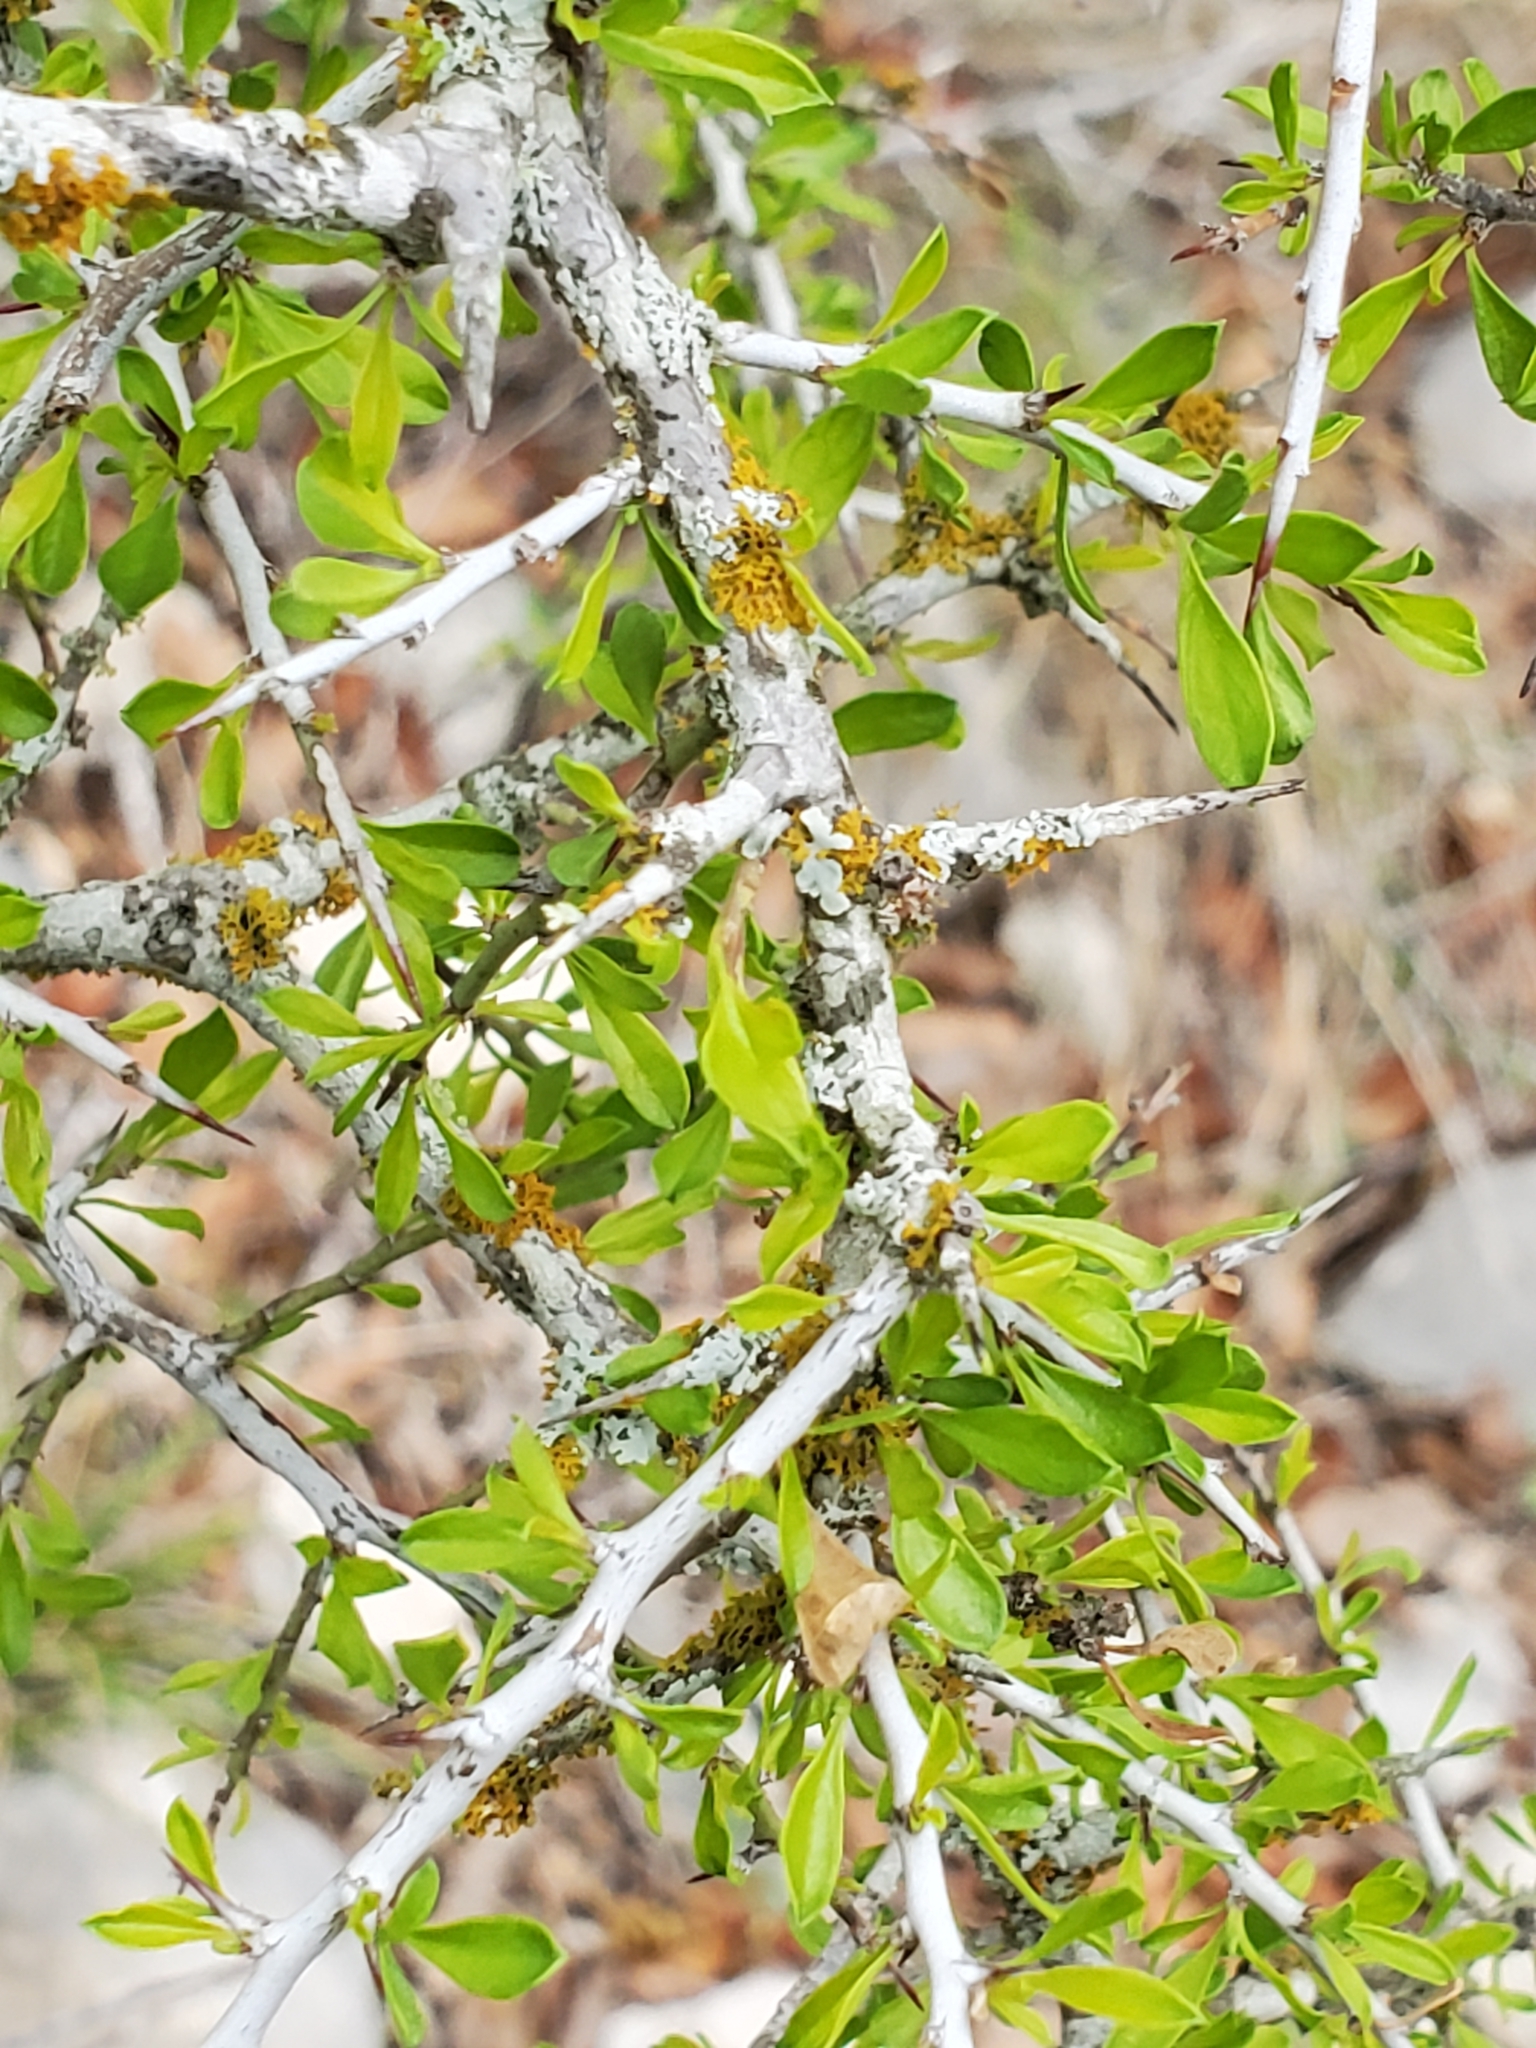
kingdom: Plantae
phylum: Tracheophyta
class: Magnoliopsida
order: Rosales
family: Rhamnaceae
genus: Condalia
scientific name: Condalia viridis
